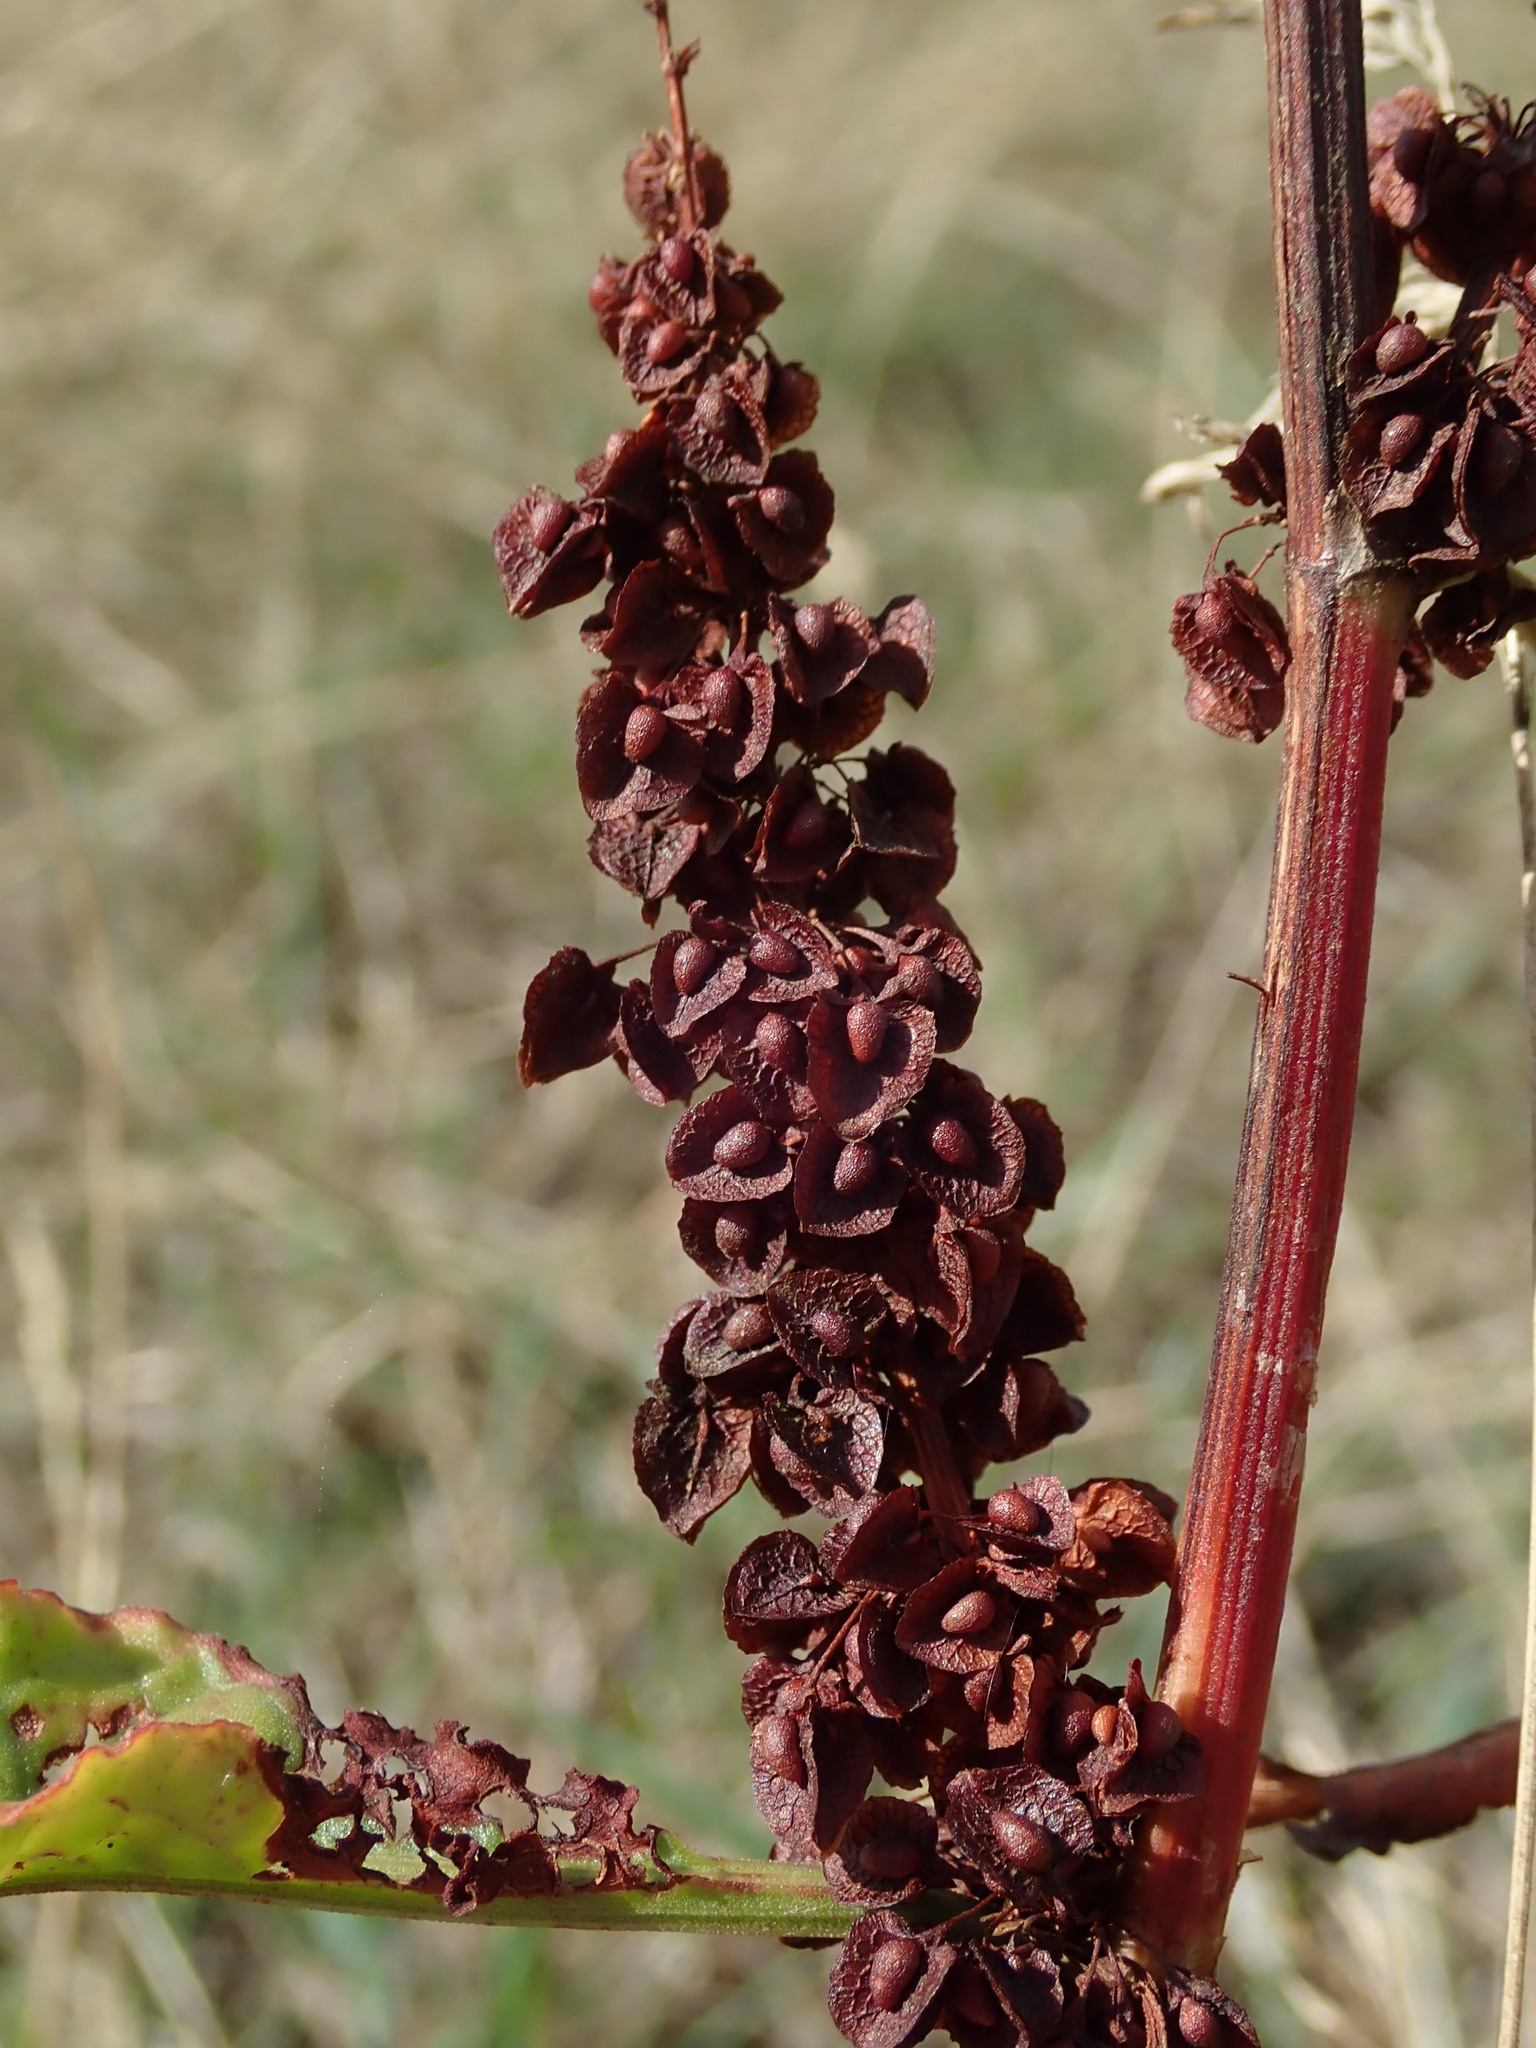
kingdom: Plantae
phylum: Tracheophyta
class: Magnoliopsida
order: Caryophyllales
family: Polygonaceae
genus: Rumex
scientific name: Rumex crispus
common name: Curled dock
